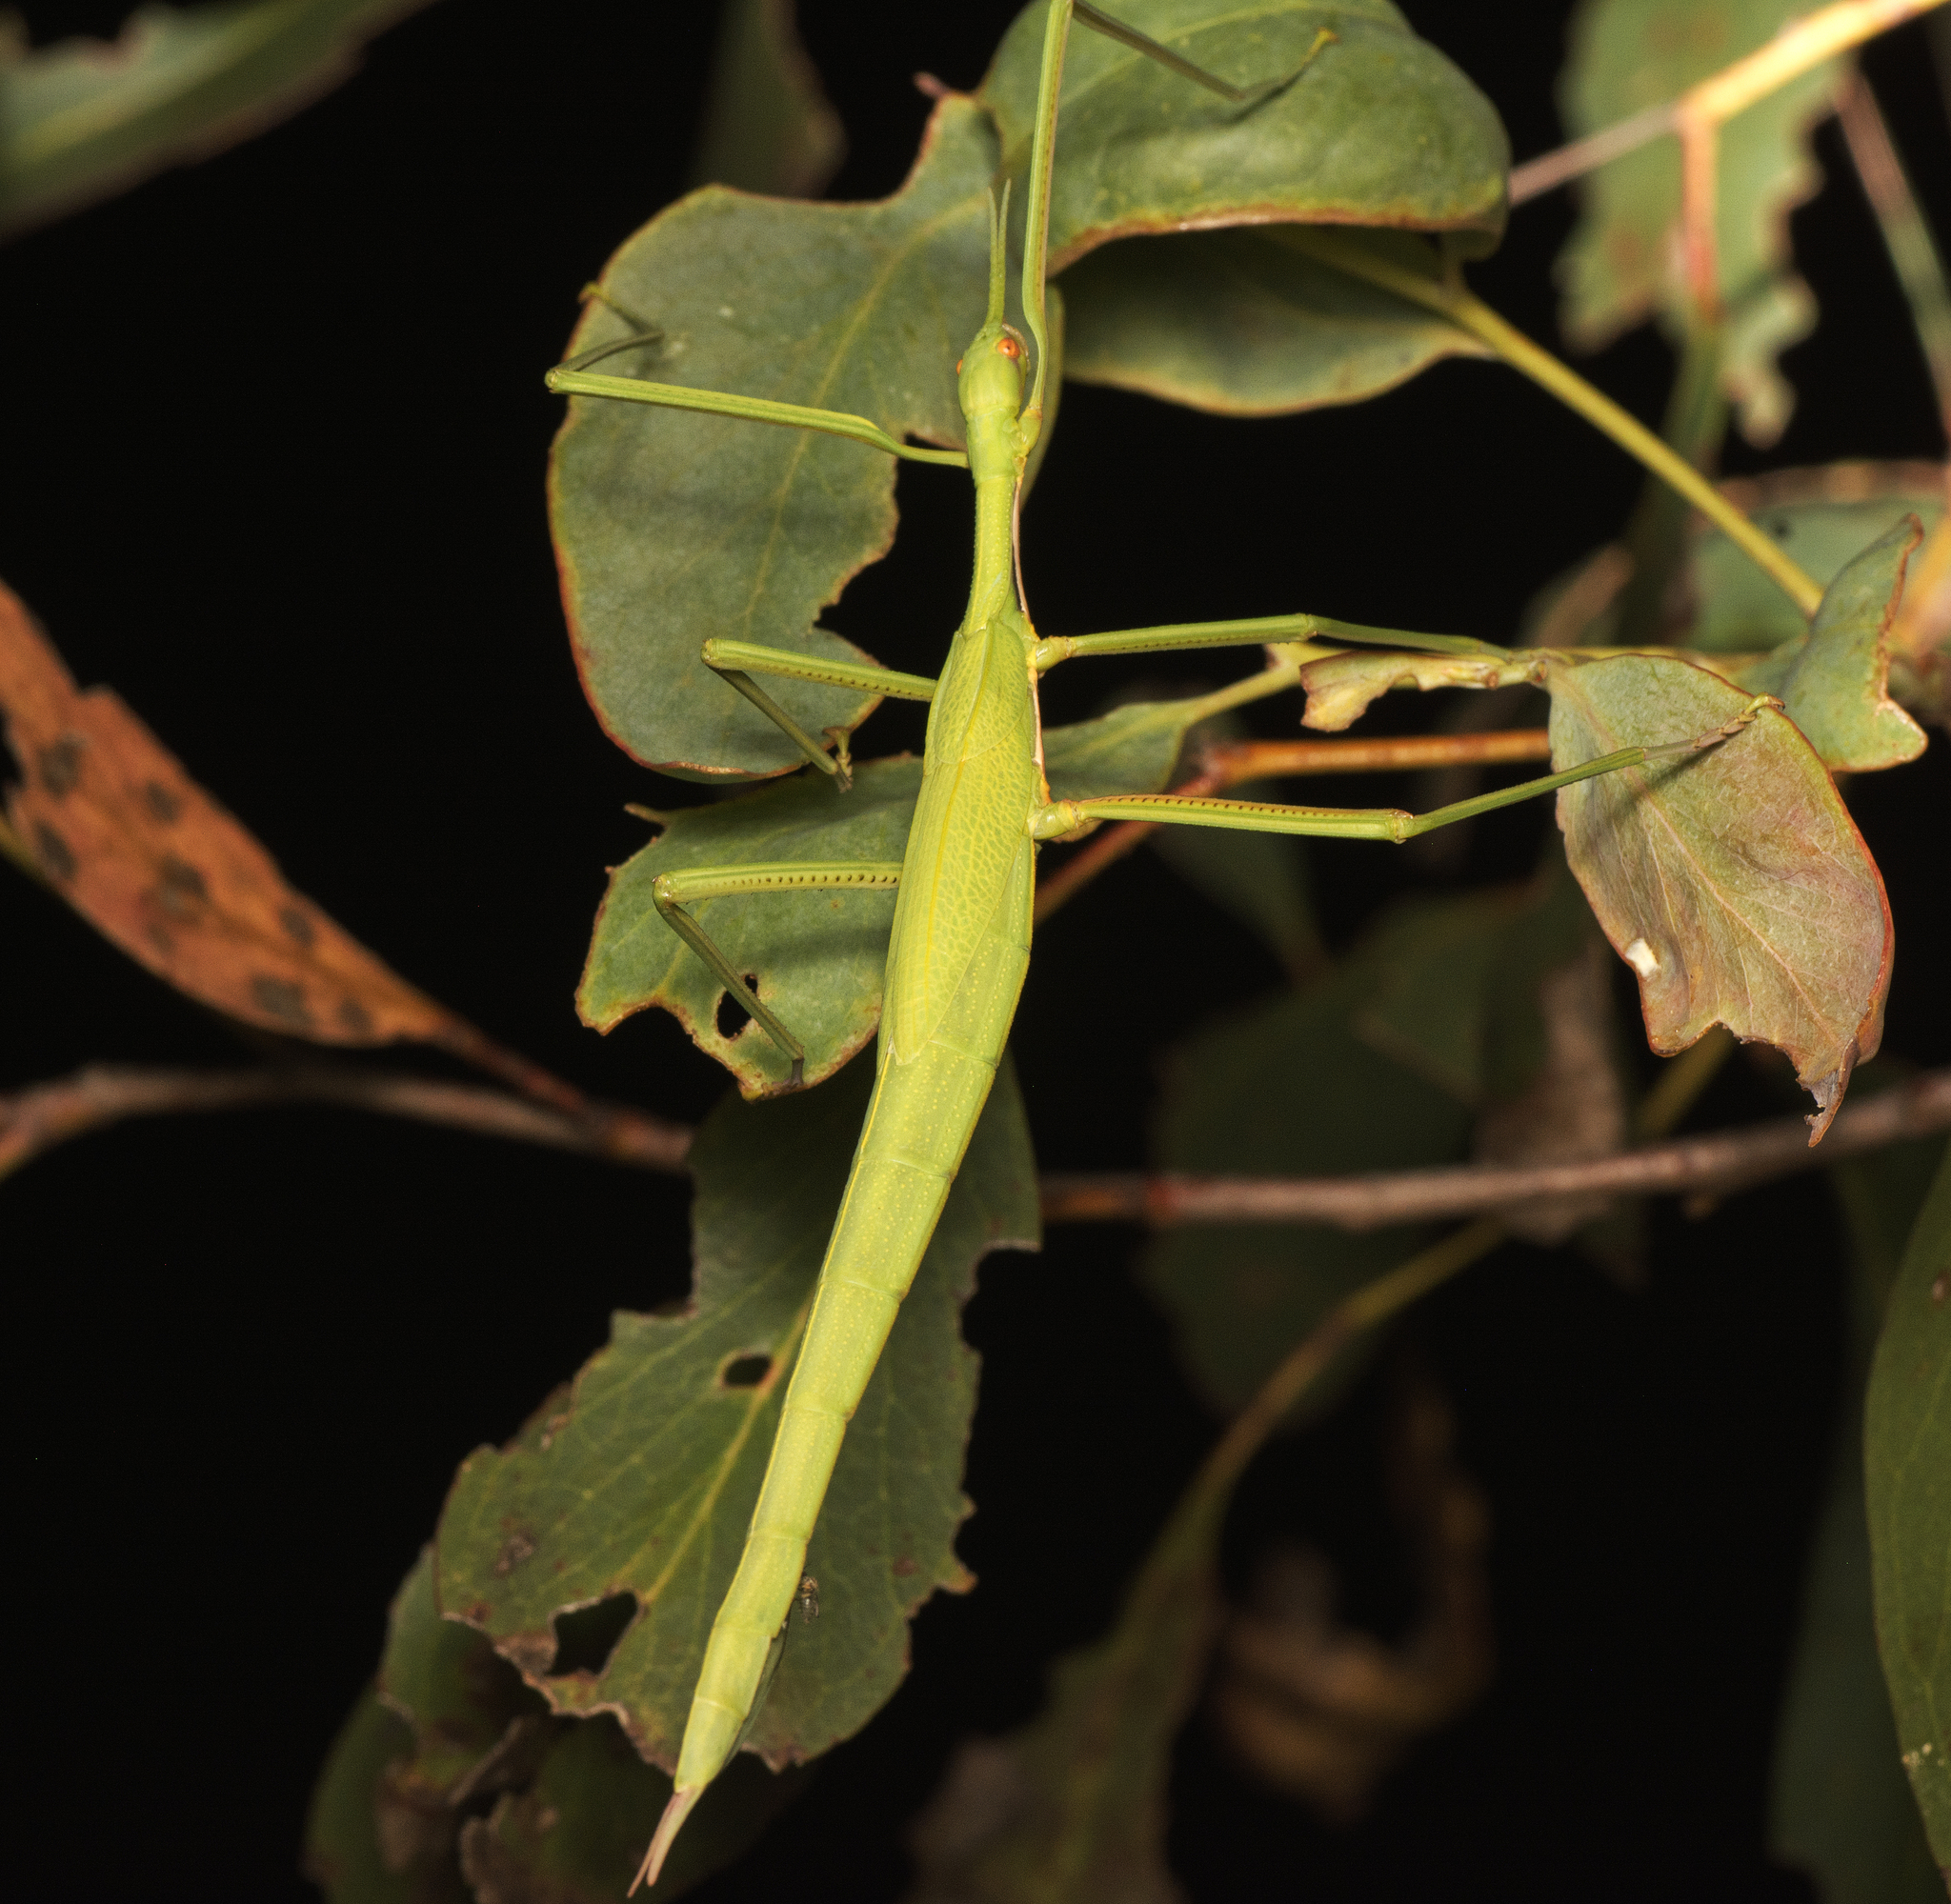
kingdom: Animalia
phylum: Arthropoda
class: Insecta
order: Phasmida
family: Phasmatidae
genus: Didymuria
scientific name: Didymuria violescens
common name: Spur-legged stick-insect
